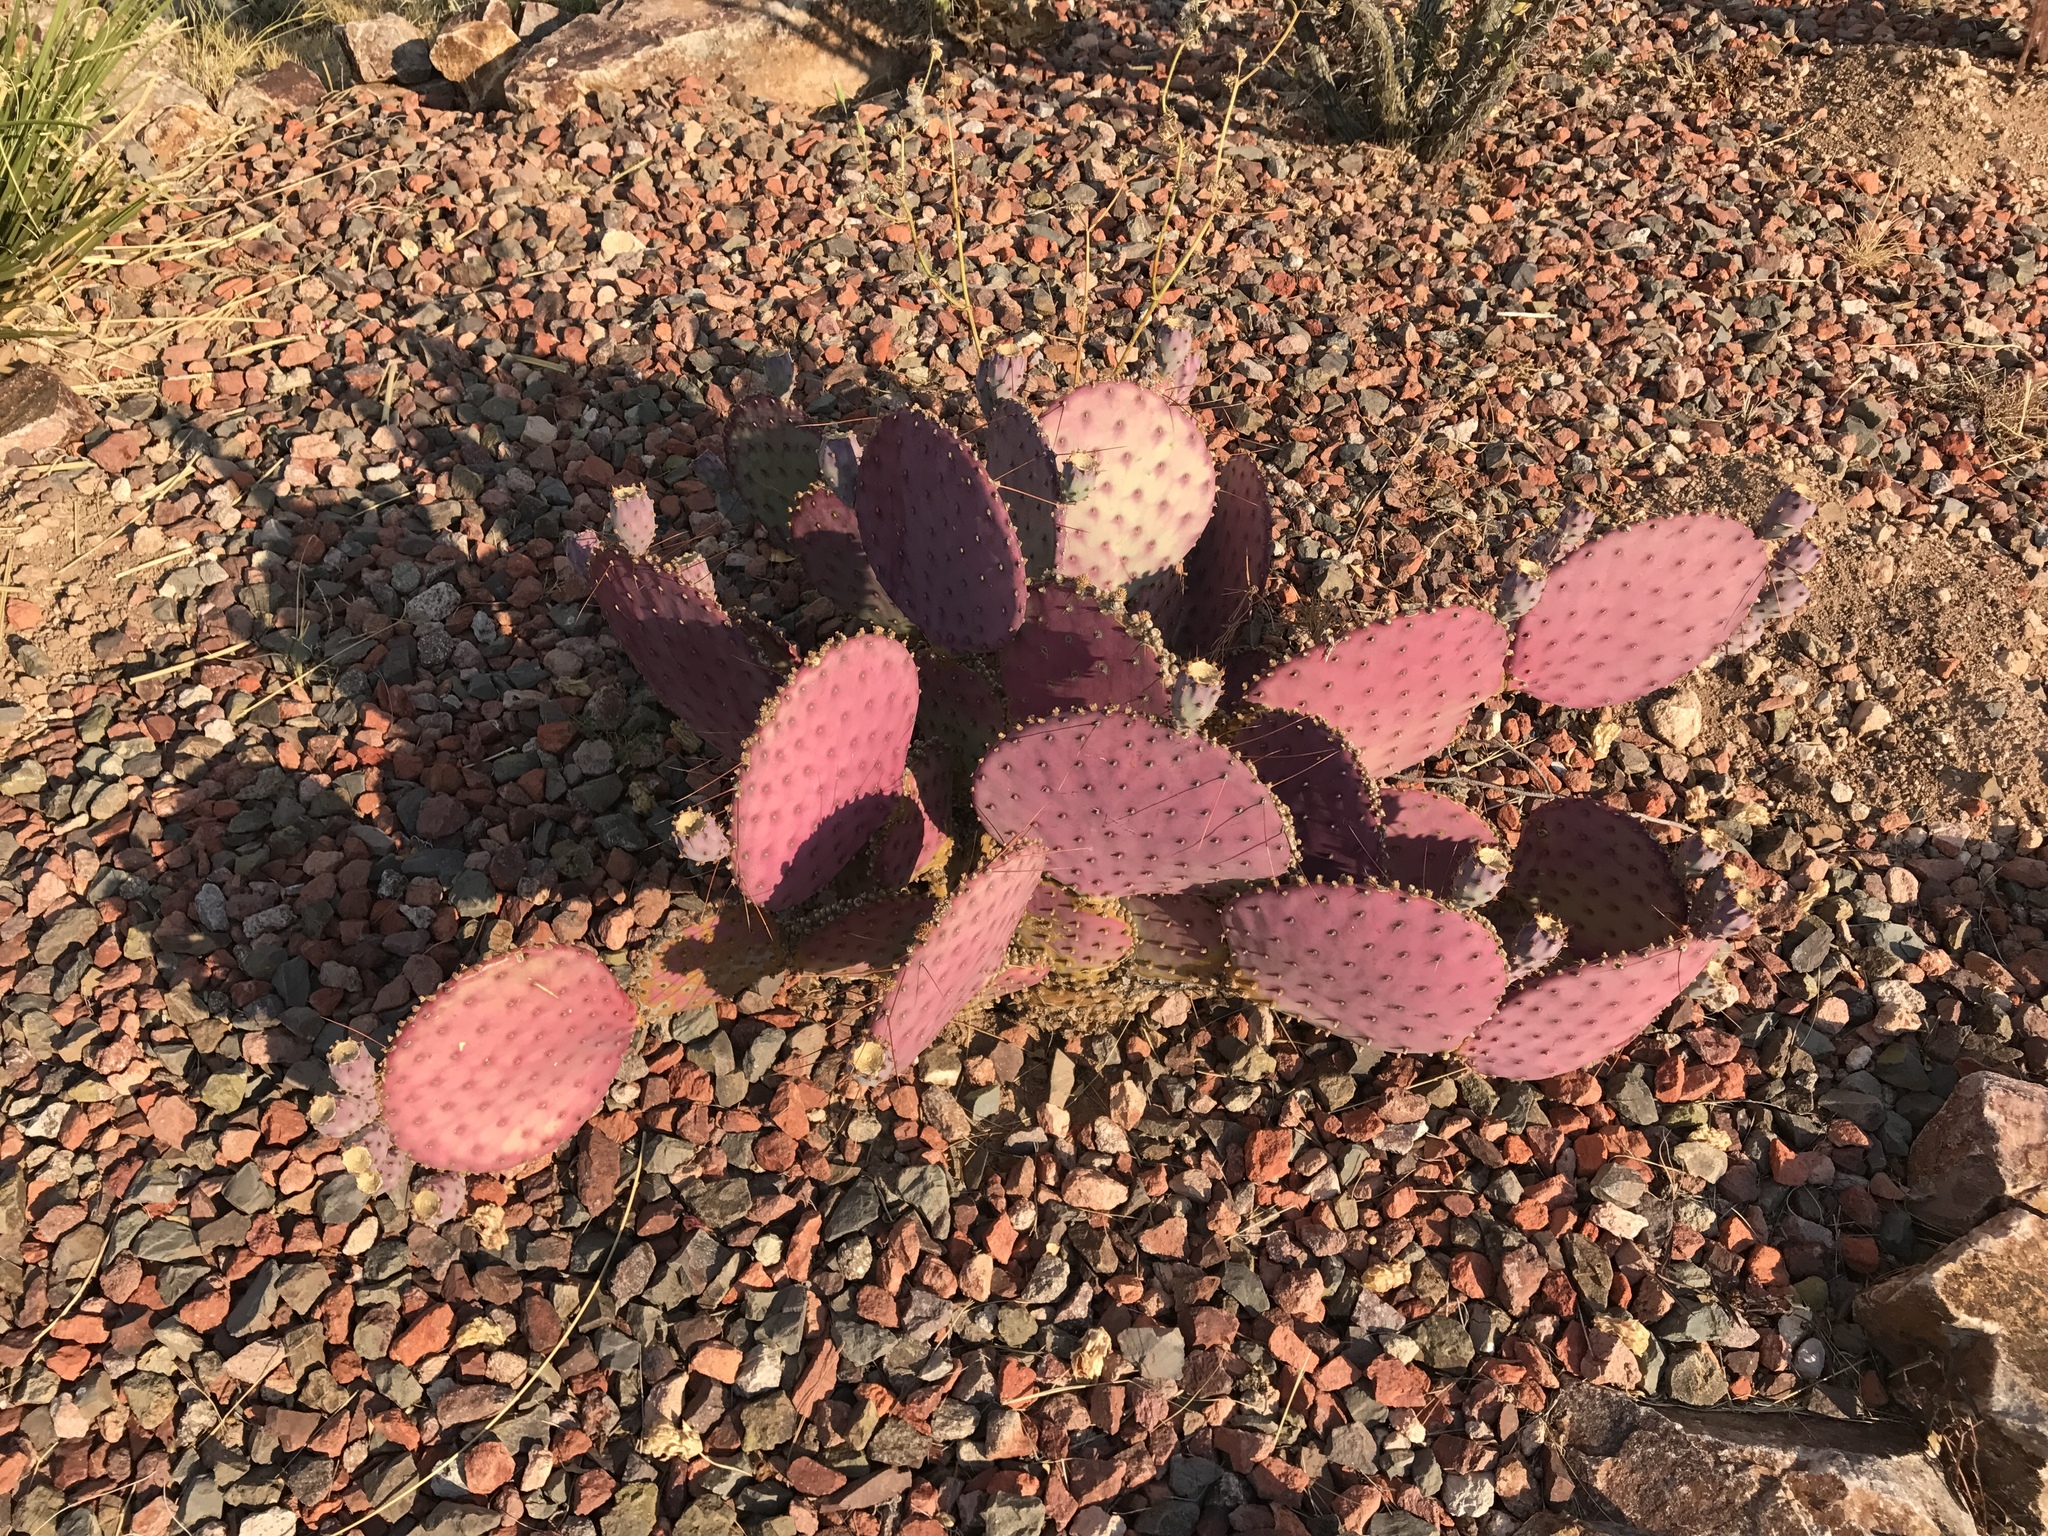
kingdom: Plantae
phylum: Tracheophyta
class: Magnoliopsida
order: Caryophyllales
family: Cactaceae
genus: Opuntia
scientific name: Opuntia macrocentra
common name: Purple prickly-pear
